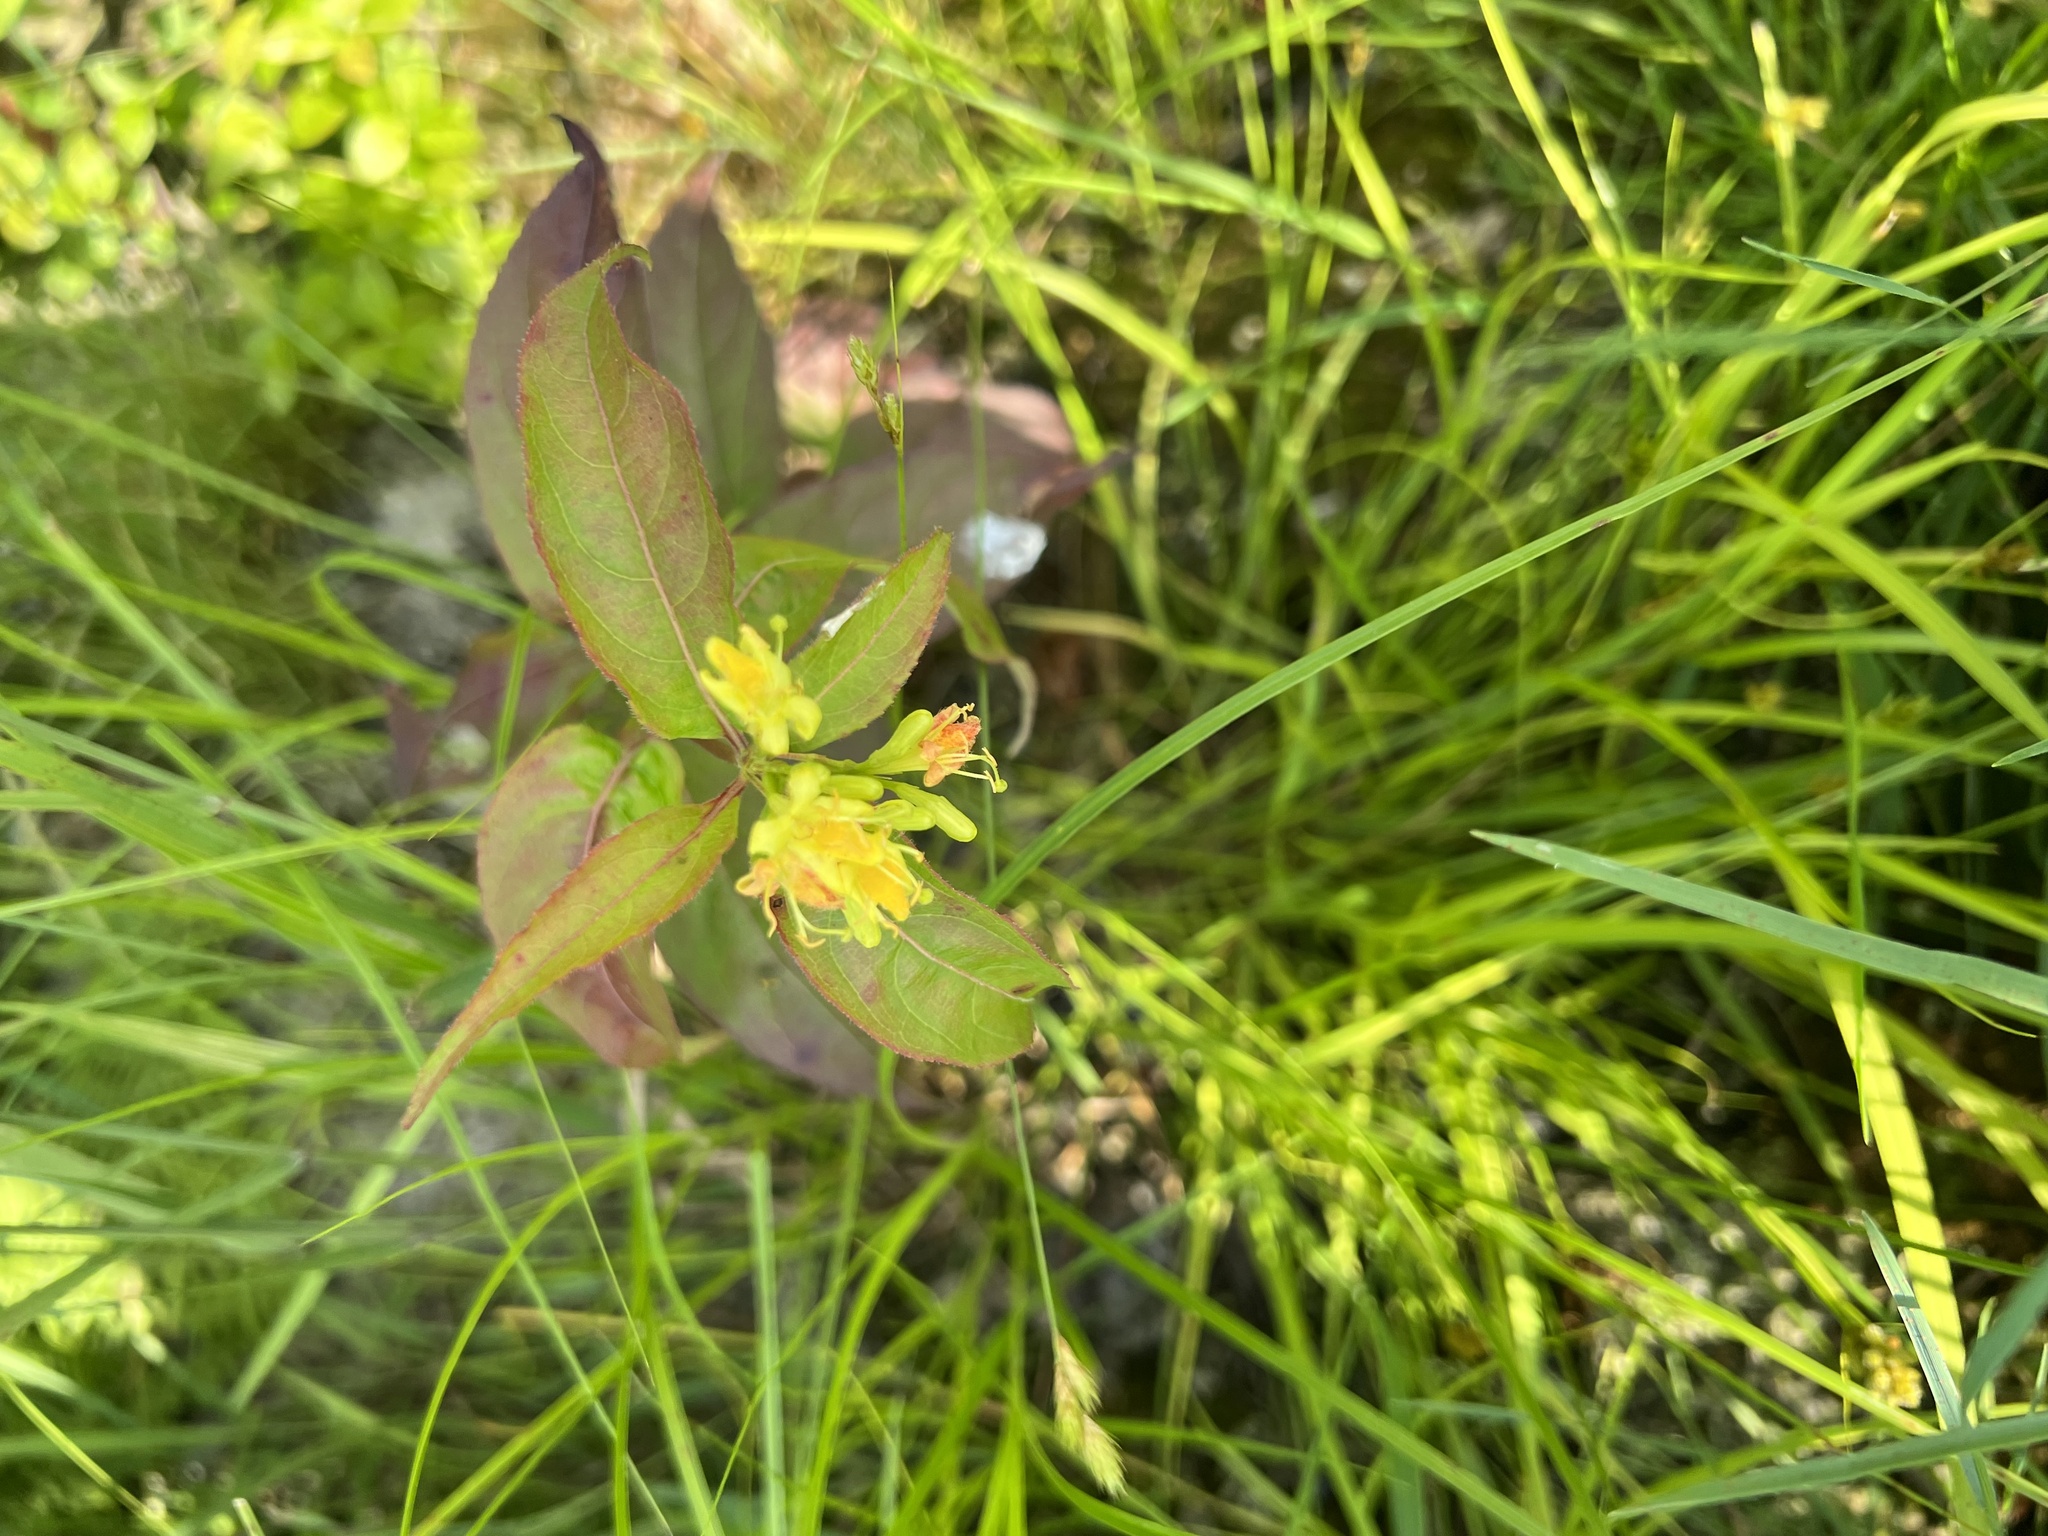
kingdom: Plantae
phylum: Tracheophyta
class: Magnoliopsida
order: Dipsacales
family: Caprifoliaceae
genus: Diervilla
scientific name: Diervilla lonicera
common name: Bush-honeysuckle
